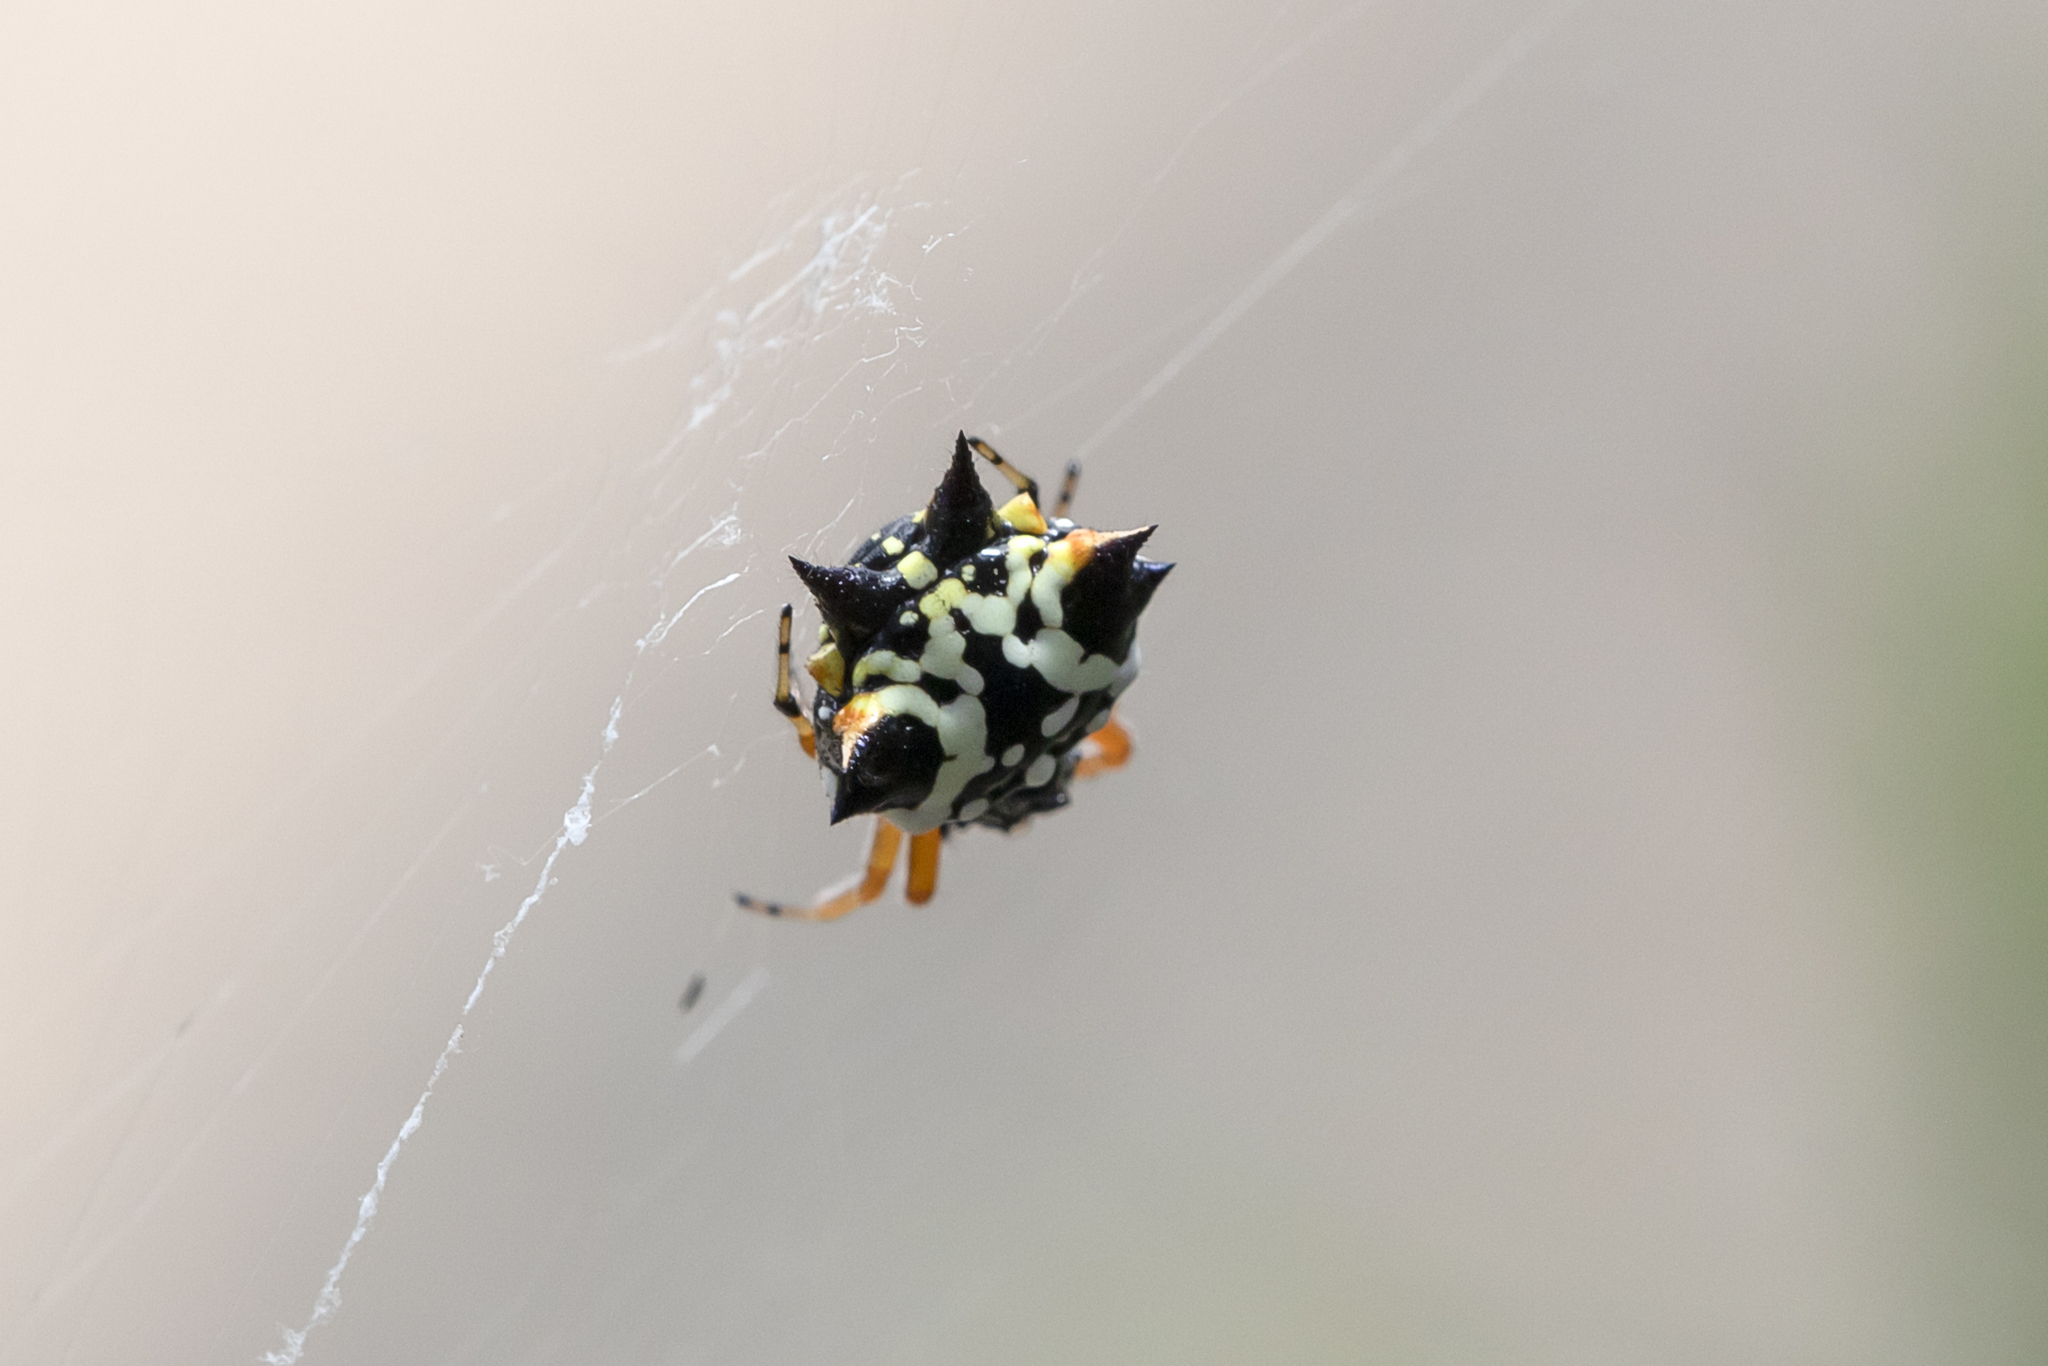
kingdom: Animalia
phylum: Arthropoda
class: Arachnida
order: Araneae
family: Araneidae
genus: Austracantha
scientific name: Austracantha minax
